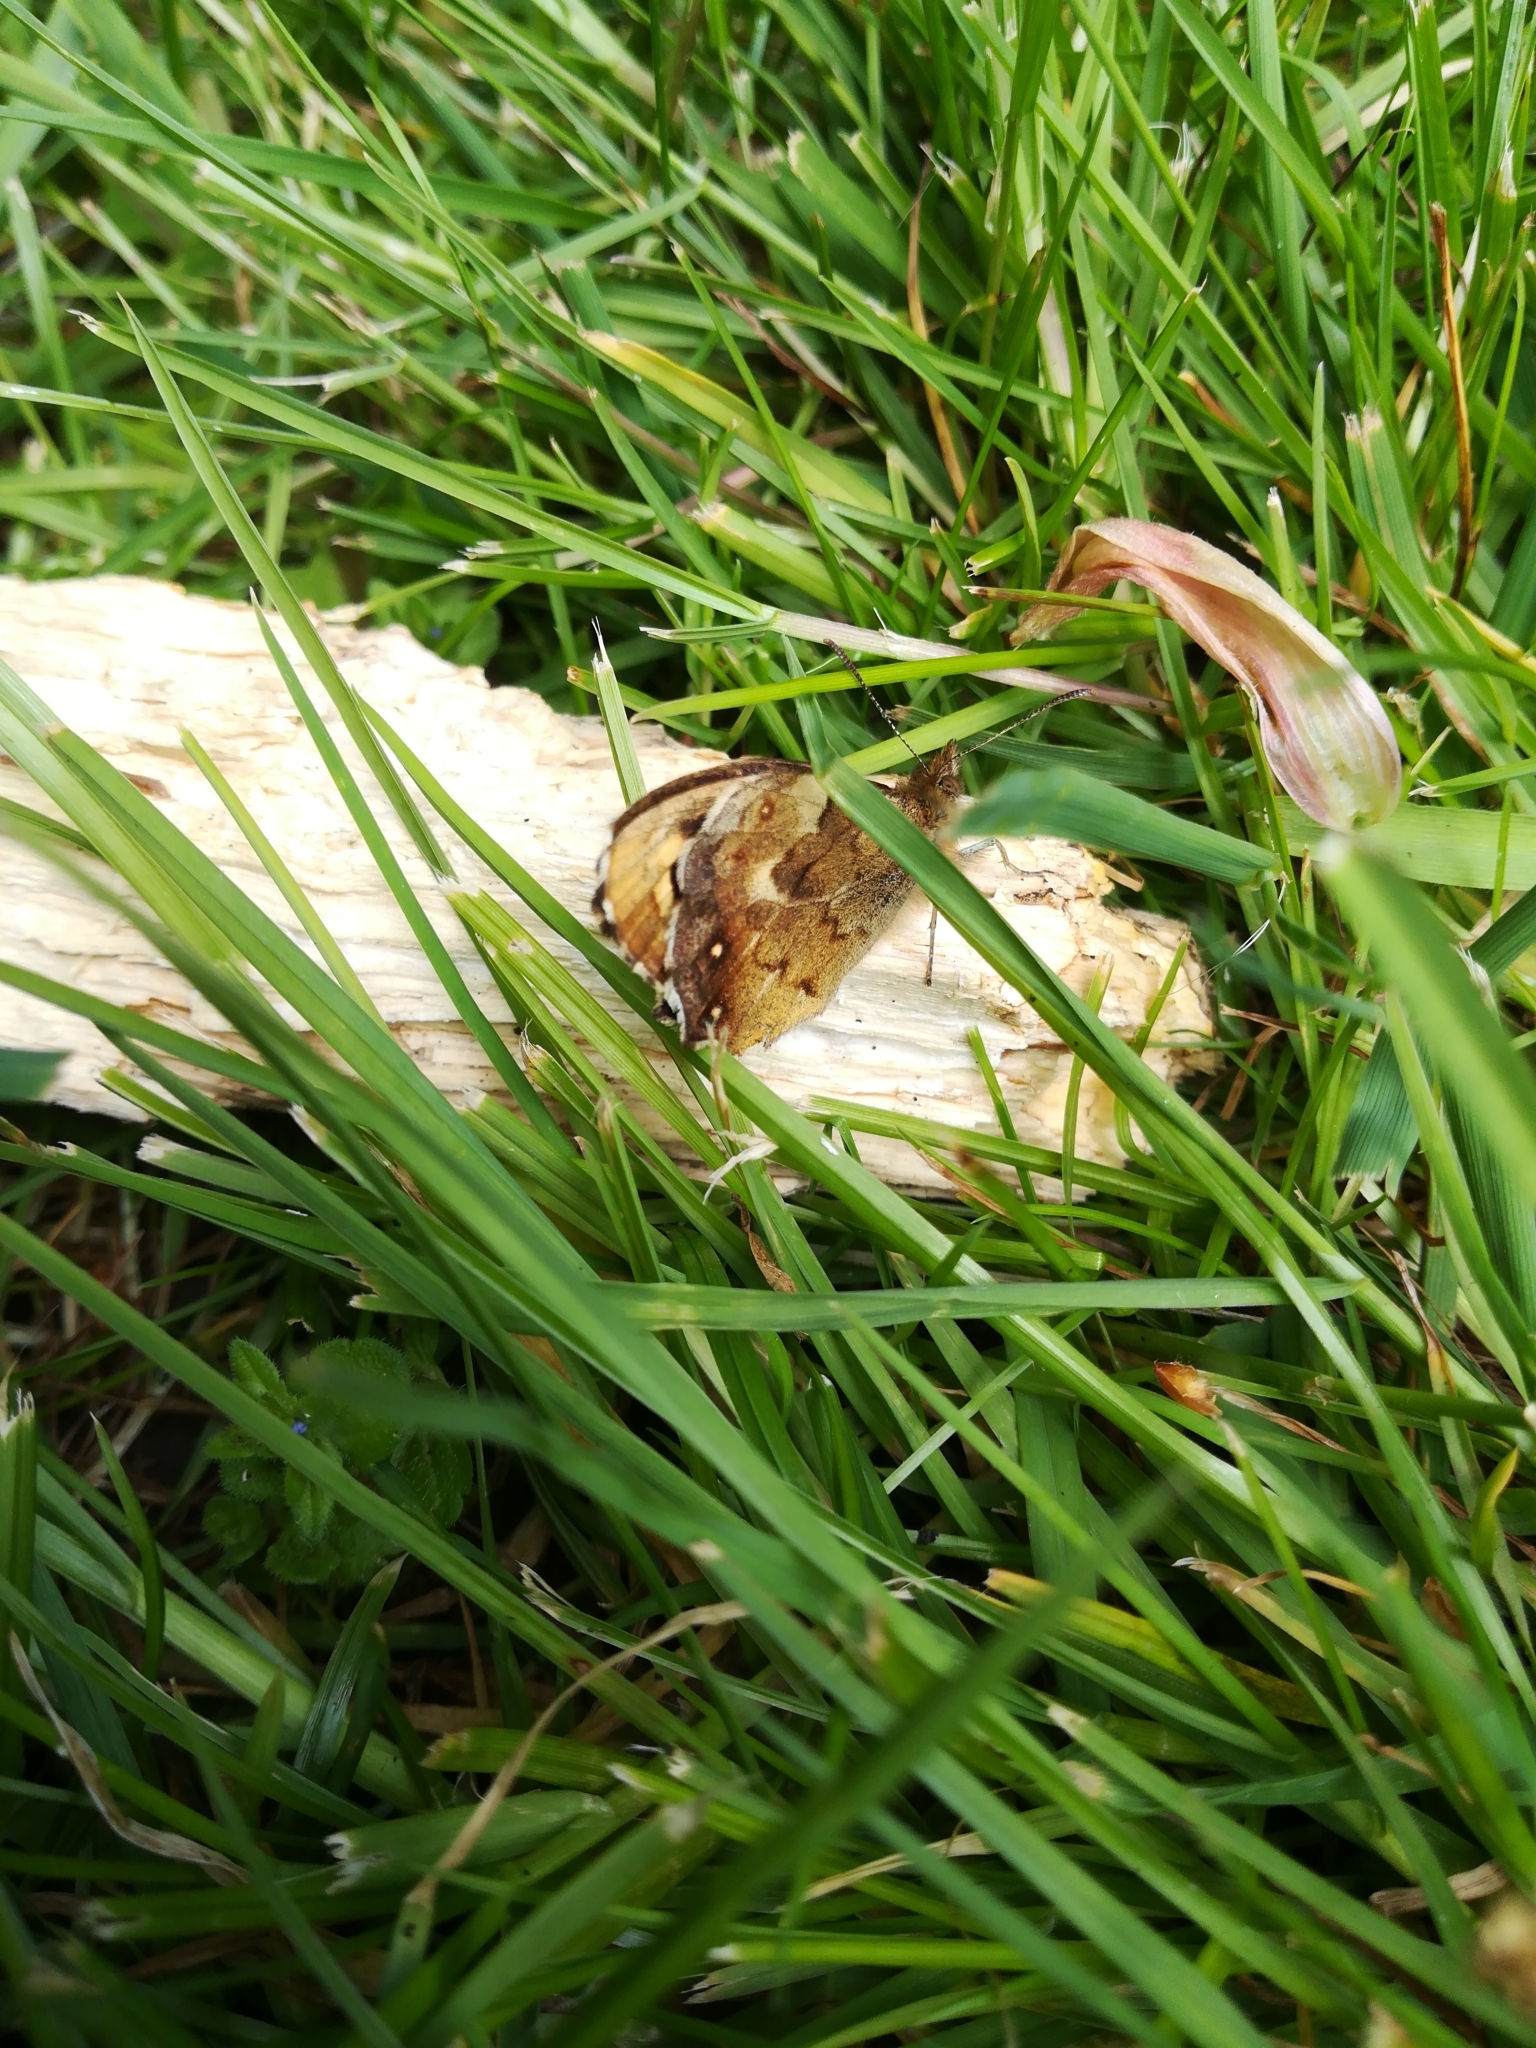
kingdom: Animalia
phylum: Arthropoda
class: Insecta
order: Lepidoptera
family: Nymphalidae
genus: Pararge
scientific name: Pararge aegeria
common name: Speckled wood
